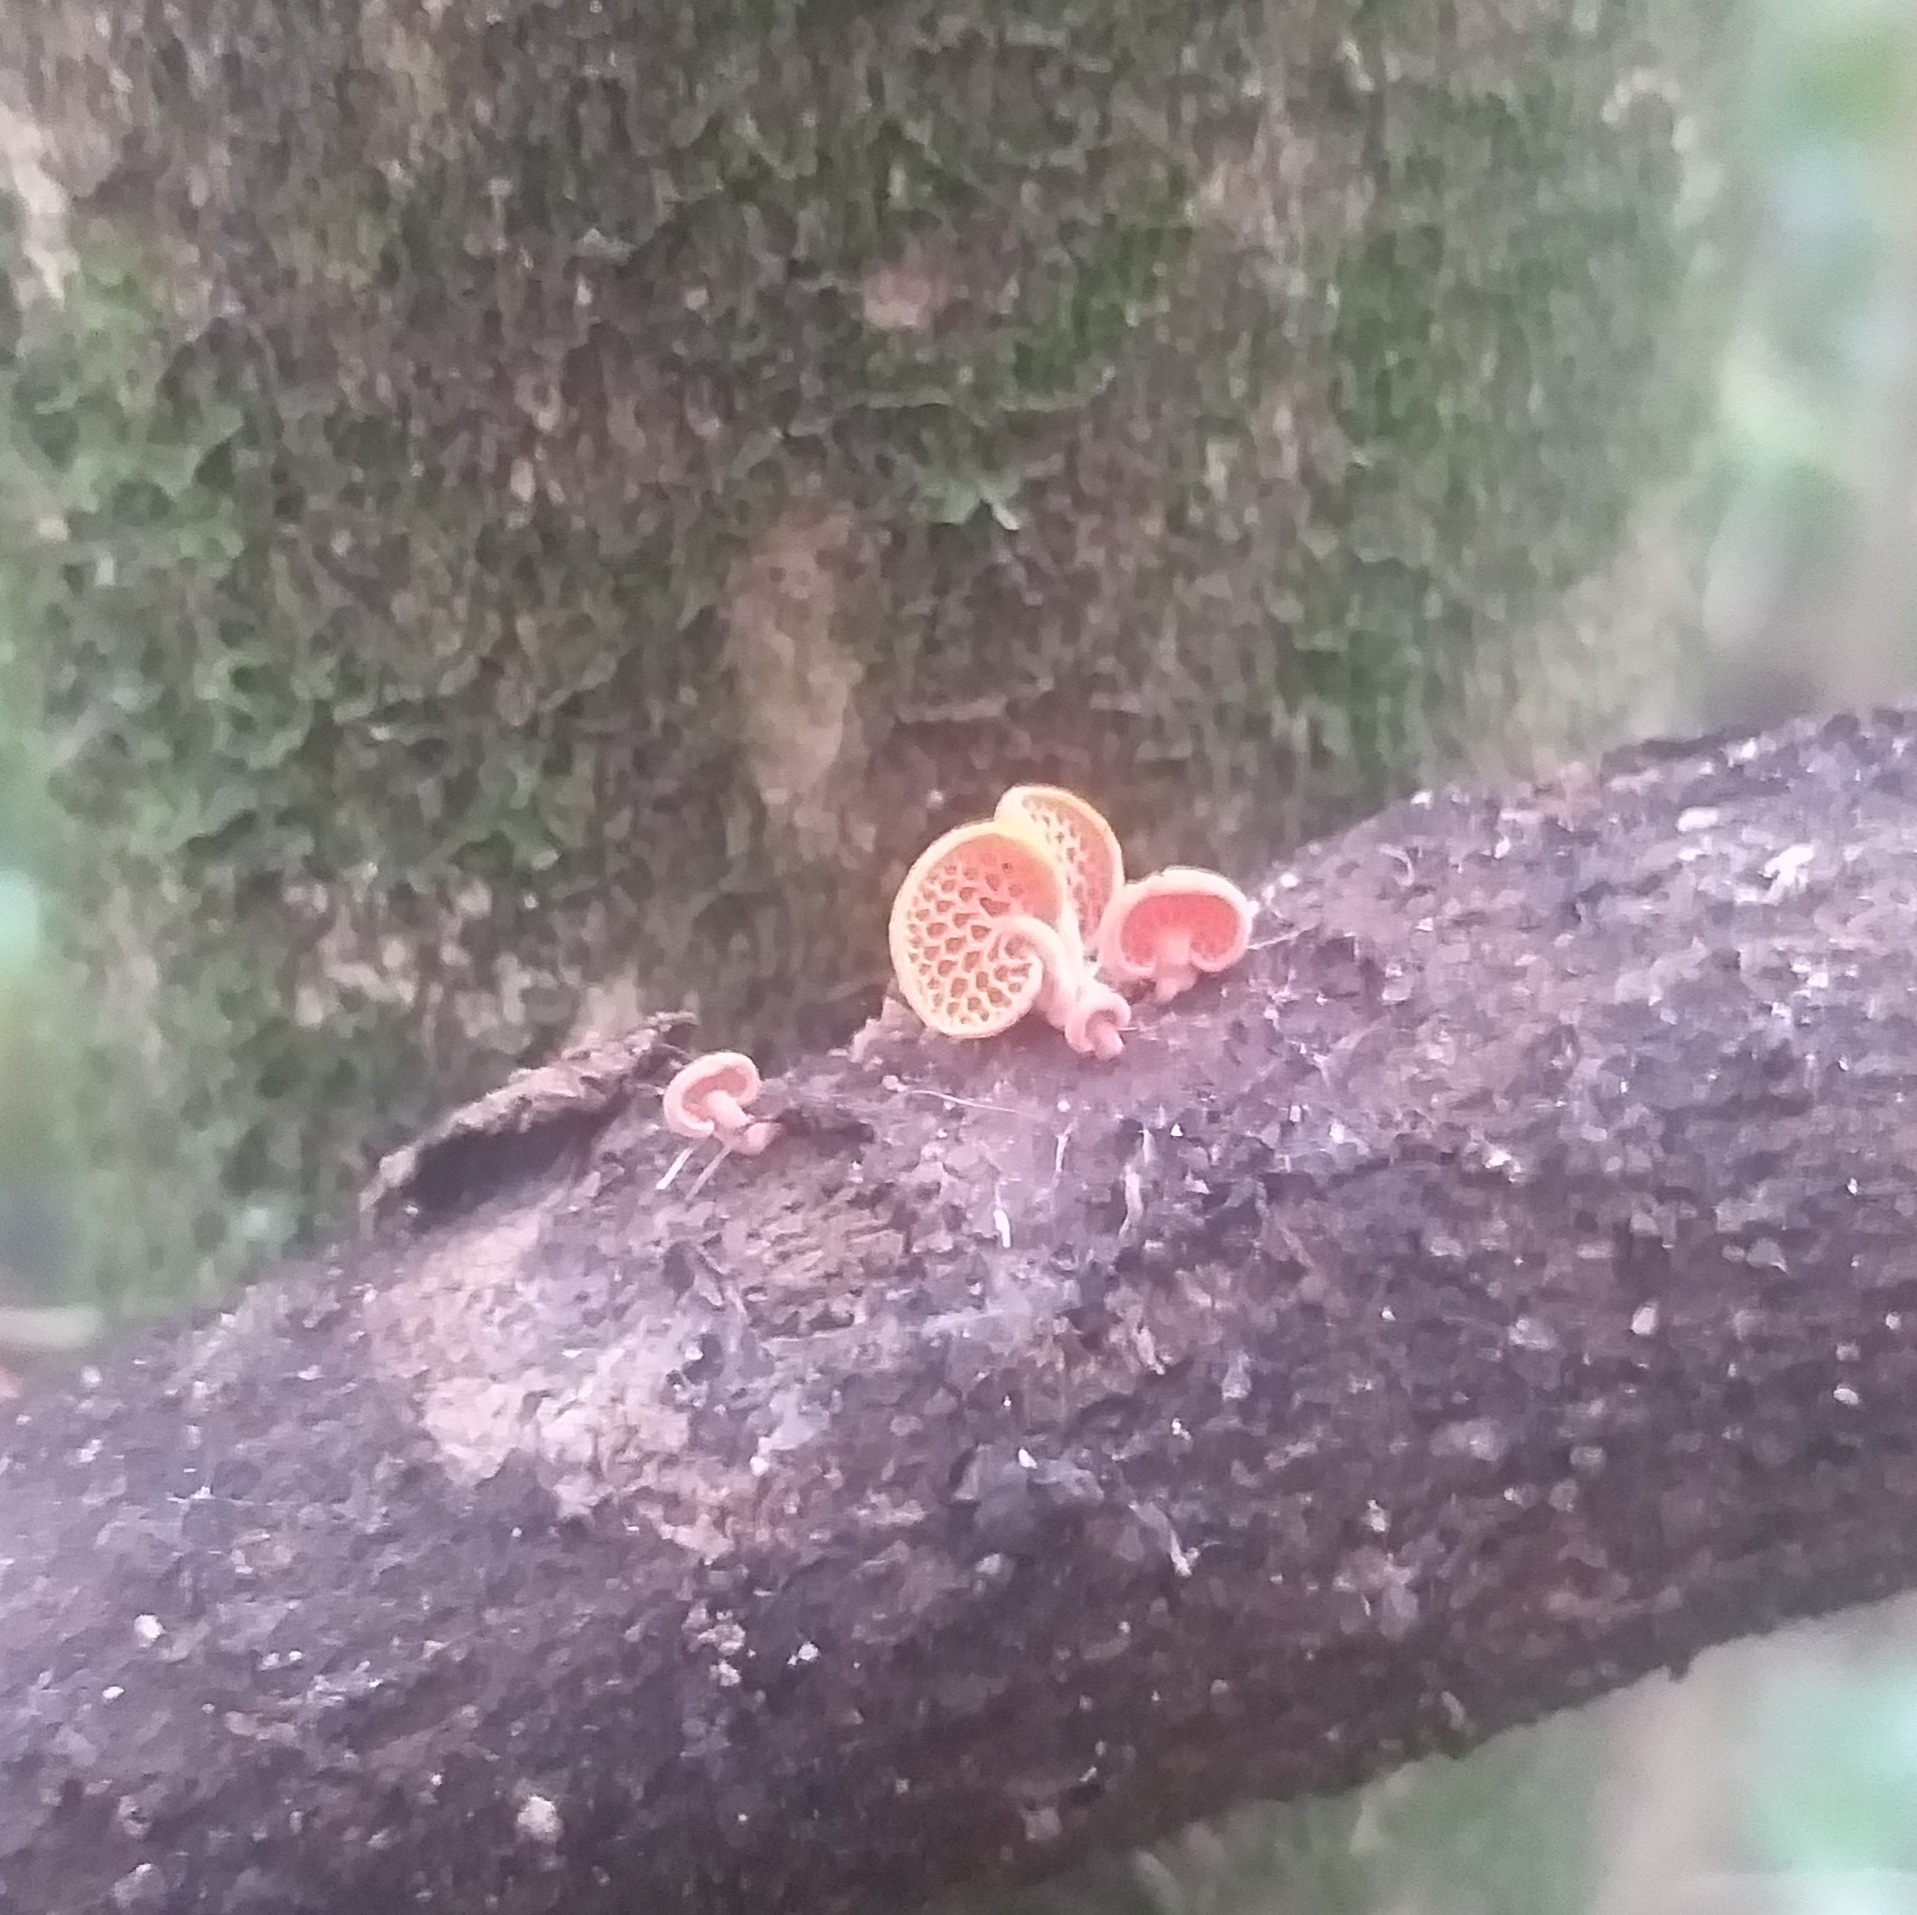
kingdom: Fungi
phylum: Basidiomycota
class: Agaricomycetes
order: Agaricales
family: Mycenaceae
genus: Favolaschia
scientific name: Favolaschia claudopus
